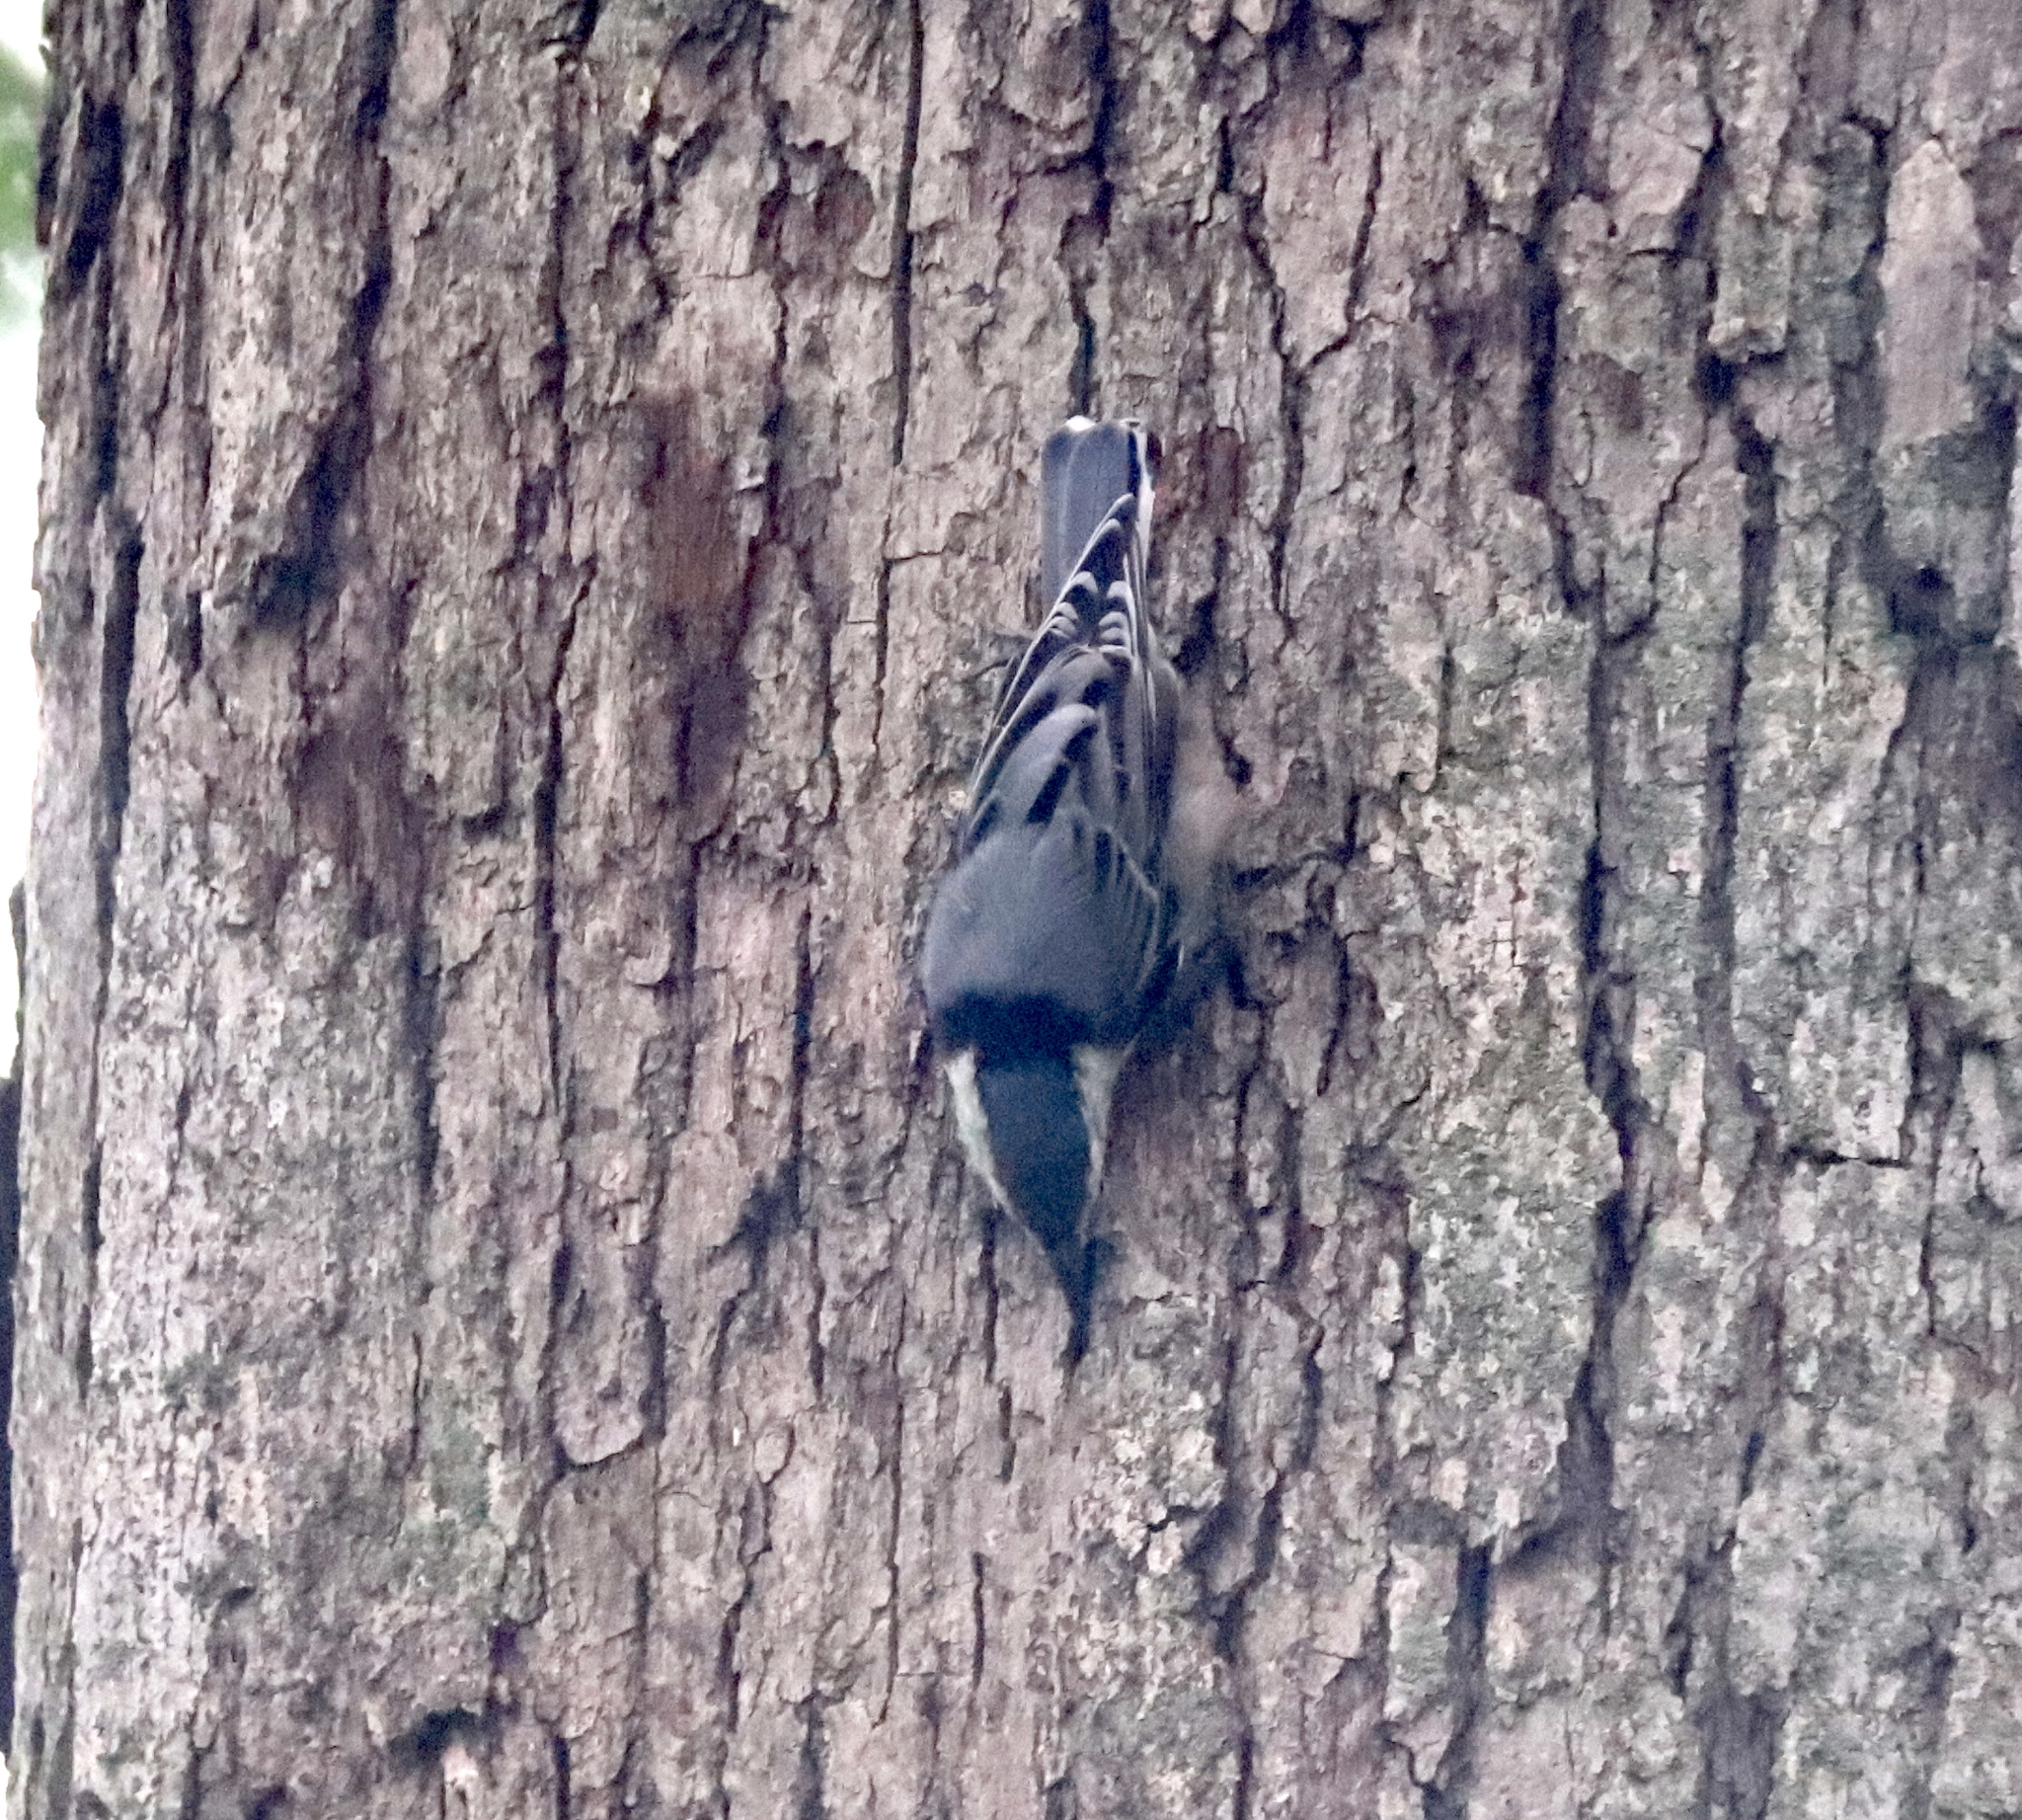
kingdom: Animalia
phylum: Chordata
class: Aves
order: Passeriformes
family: Sittidae
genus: Sitta
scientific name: Sitta carolinensis
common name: White-breasted nuthatch
